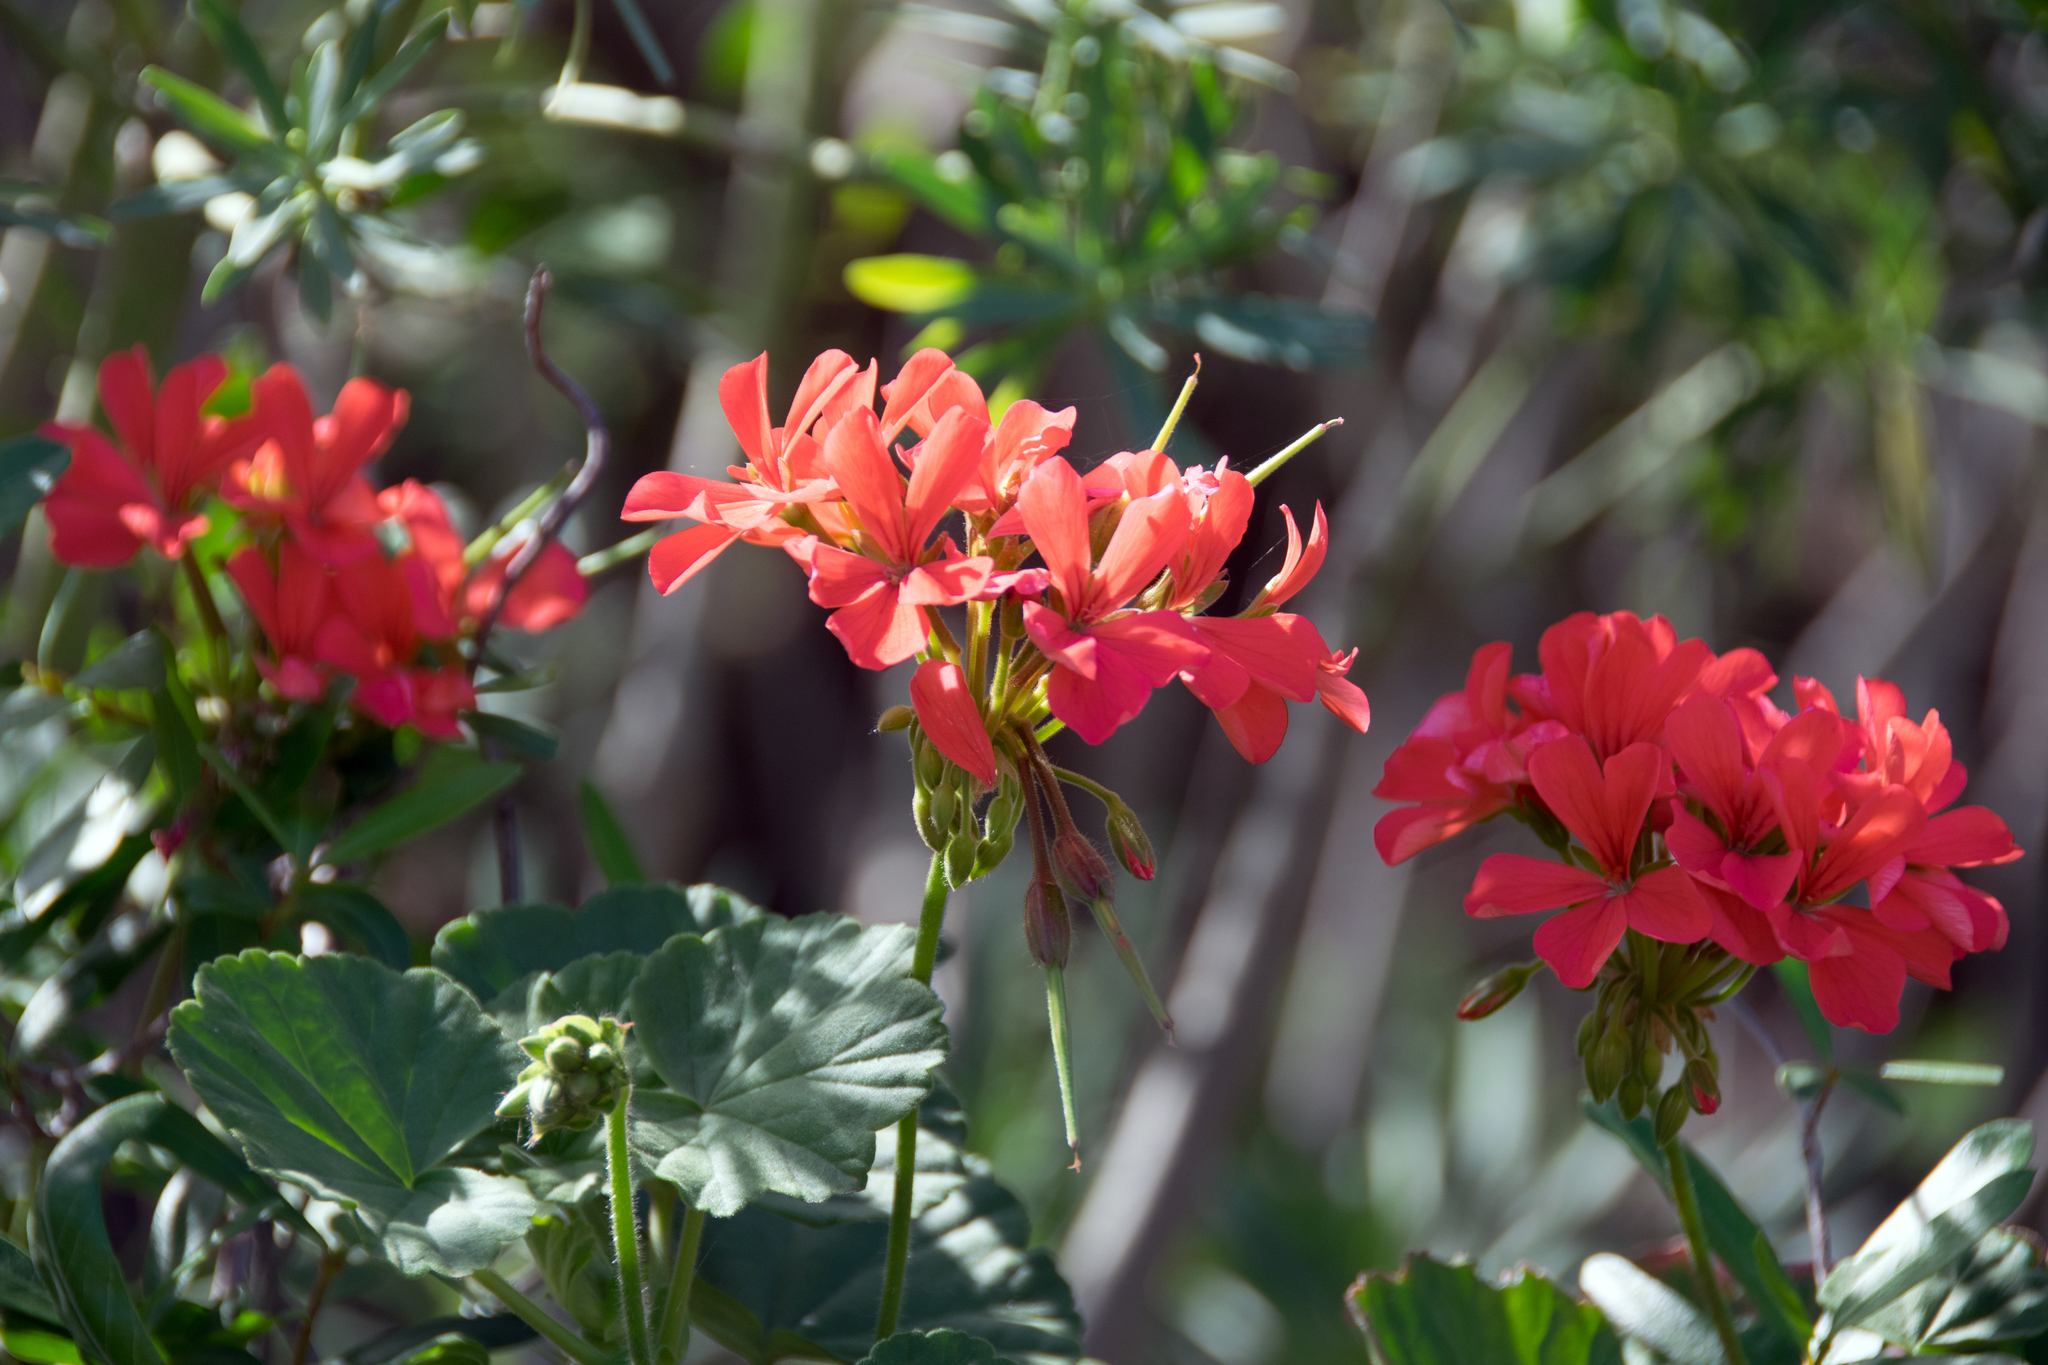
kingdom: Plantae
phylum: Tracheophyta
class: Magnoliopsida
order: Geraniales
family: Geraniaceae
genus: Pelargonium
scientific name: Pelargonium hybridum
